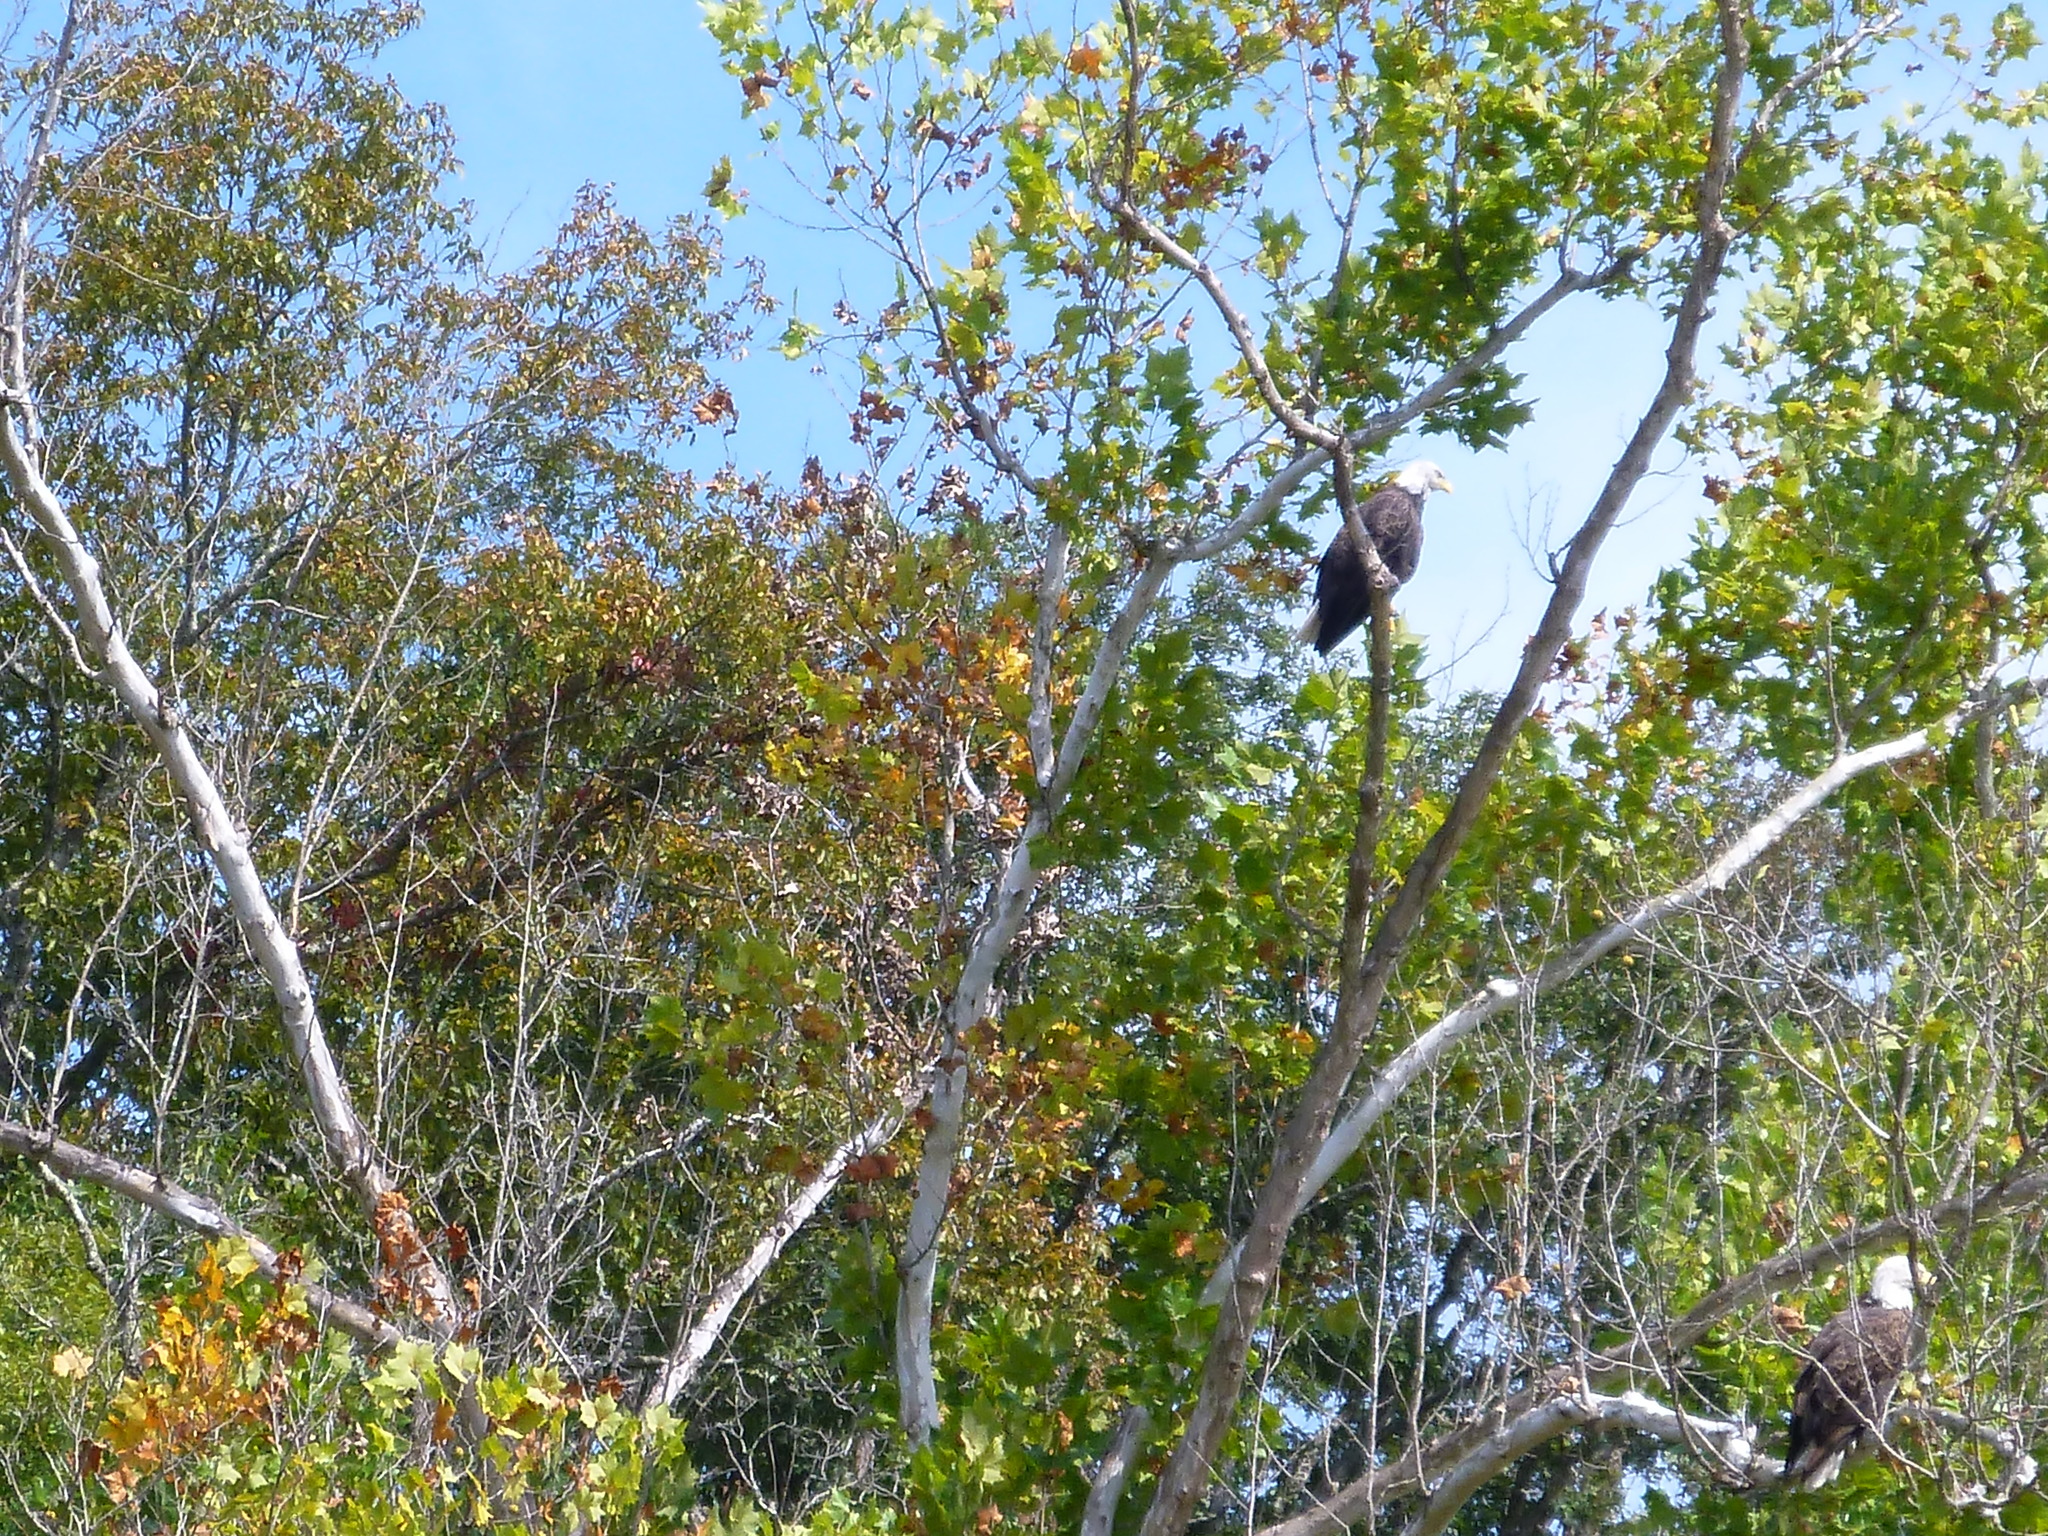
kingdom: Animalia
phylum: Chordata
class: Aves
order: Accipitriformes
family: Accipitridae
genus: Haliaeetus
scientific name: Haliaeetus leucocephalus
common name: Bald eagle
